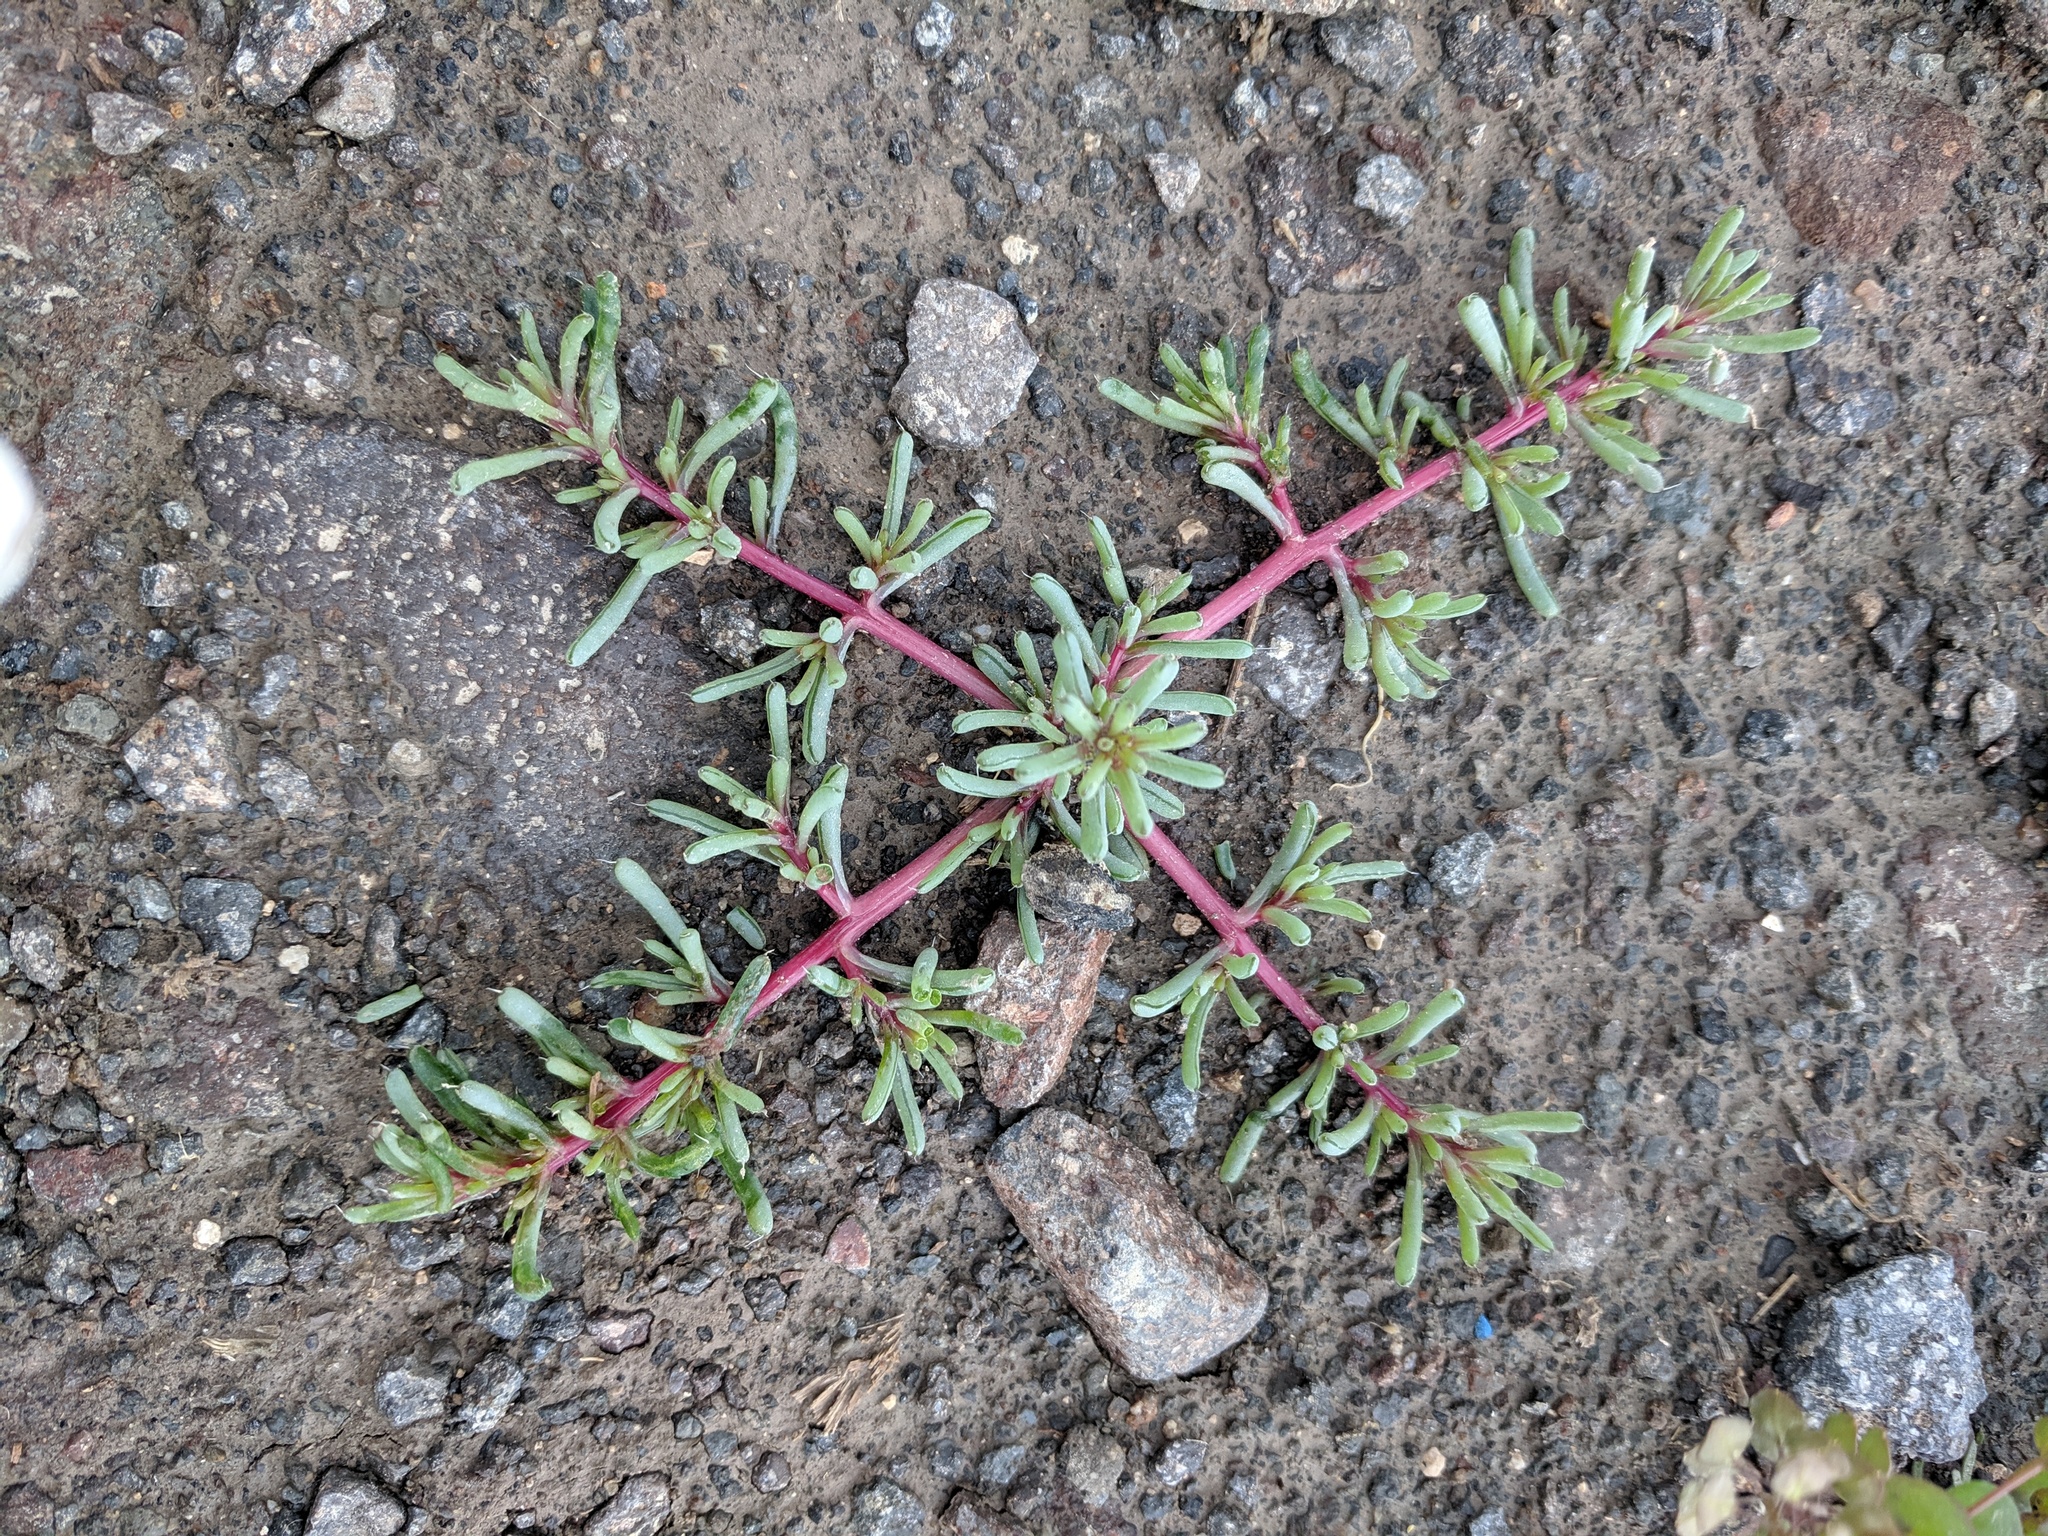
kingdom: Plantae
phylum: Tracheophyta
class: Magnoliopsida
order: Caryophyllales
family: Amaranthaceae
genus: Halogeton
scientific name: Halogeton glomeratus
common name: Saltlover
